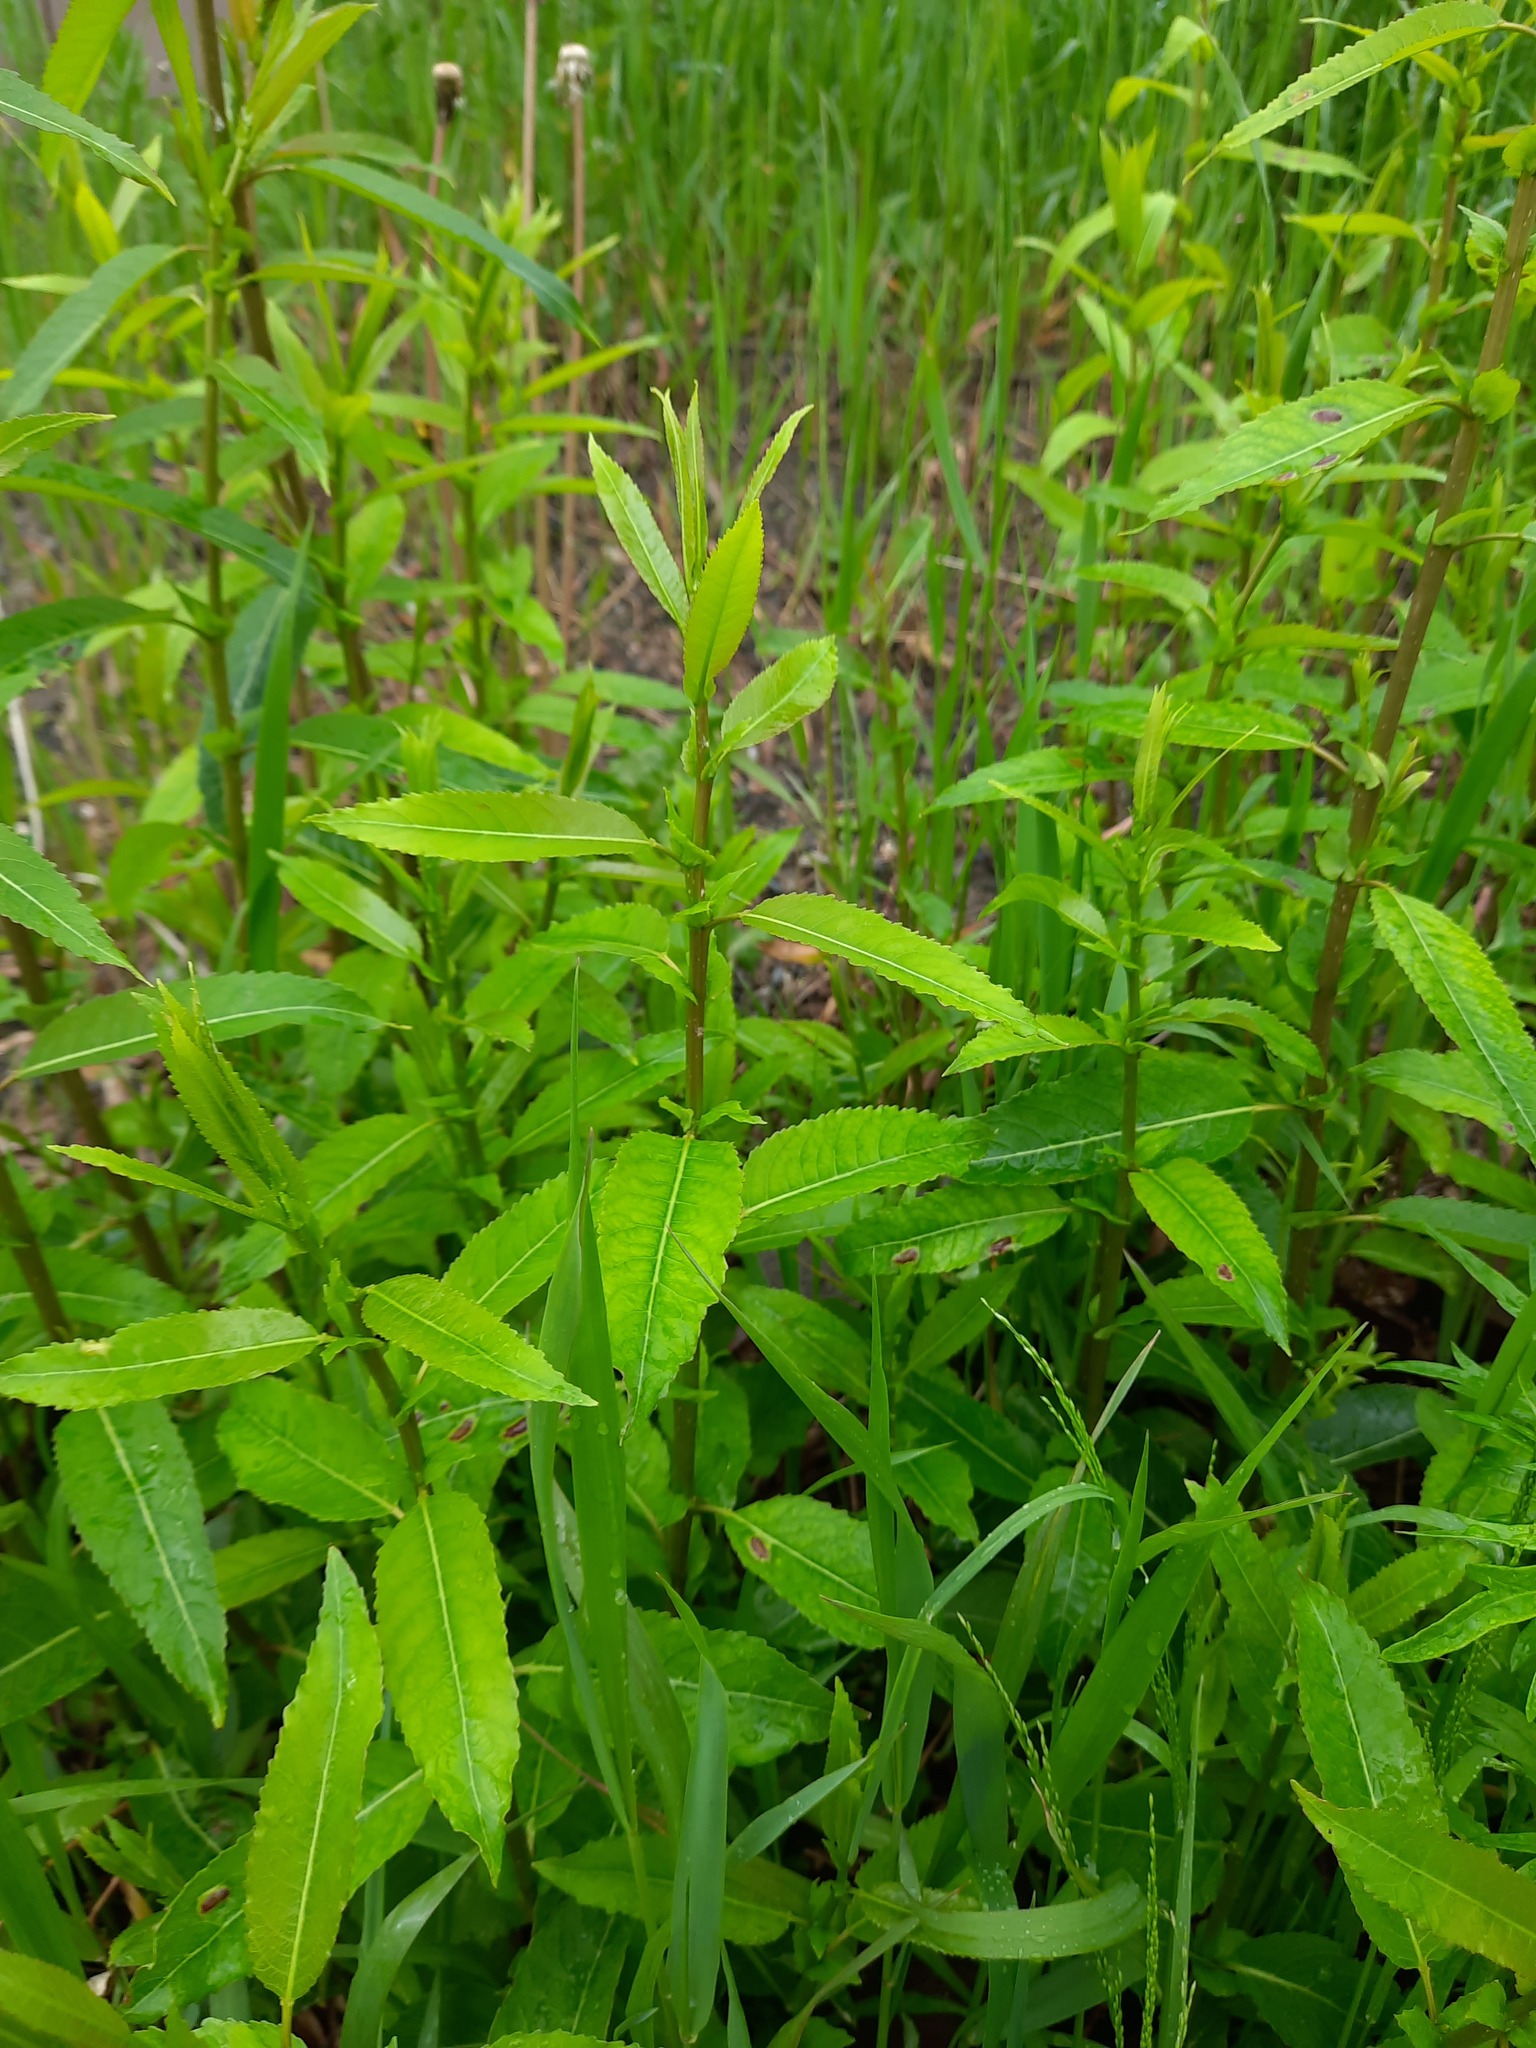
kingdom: Plantae
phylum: Tracheophyta
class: Magnoliopsida
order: Malpighiales
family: Salicaceae
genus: Salix
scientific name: Salix triandra
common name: Almond willow
